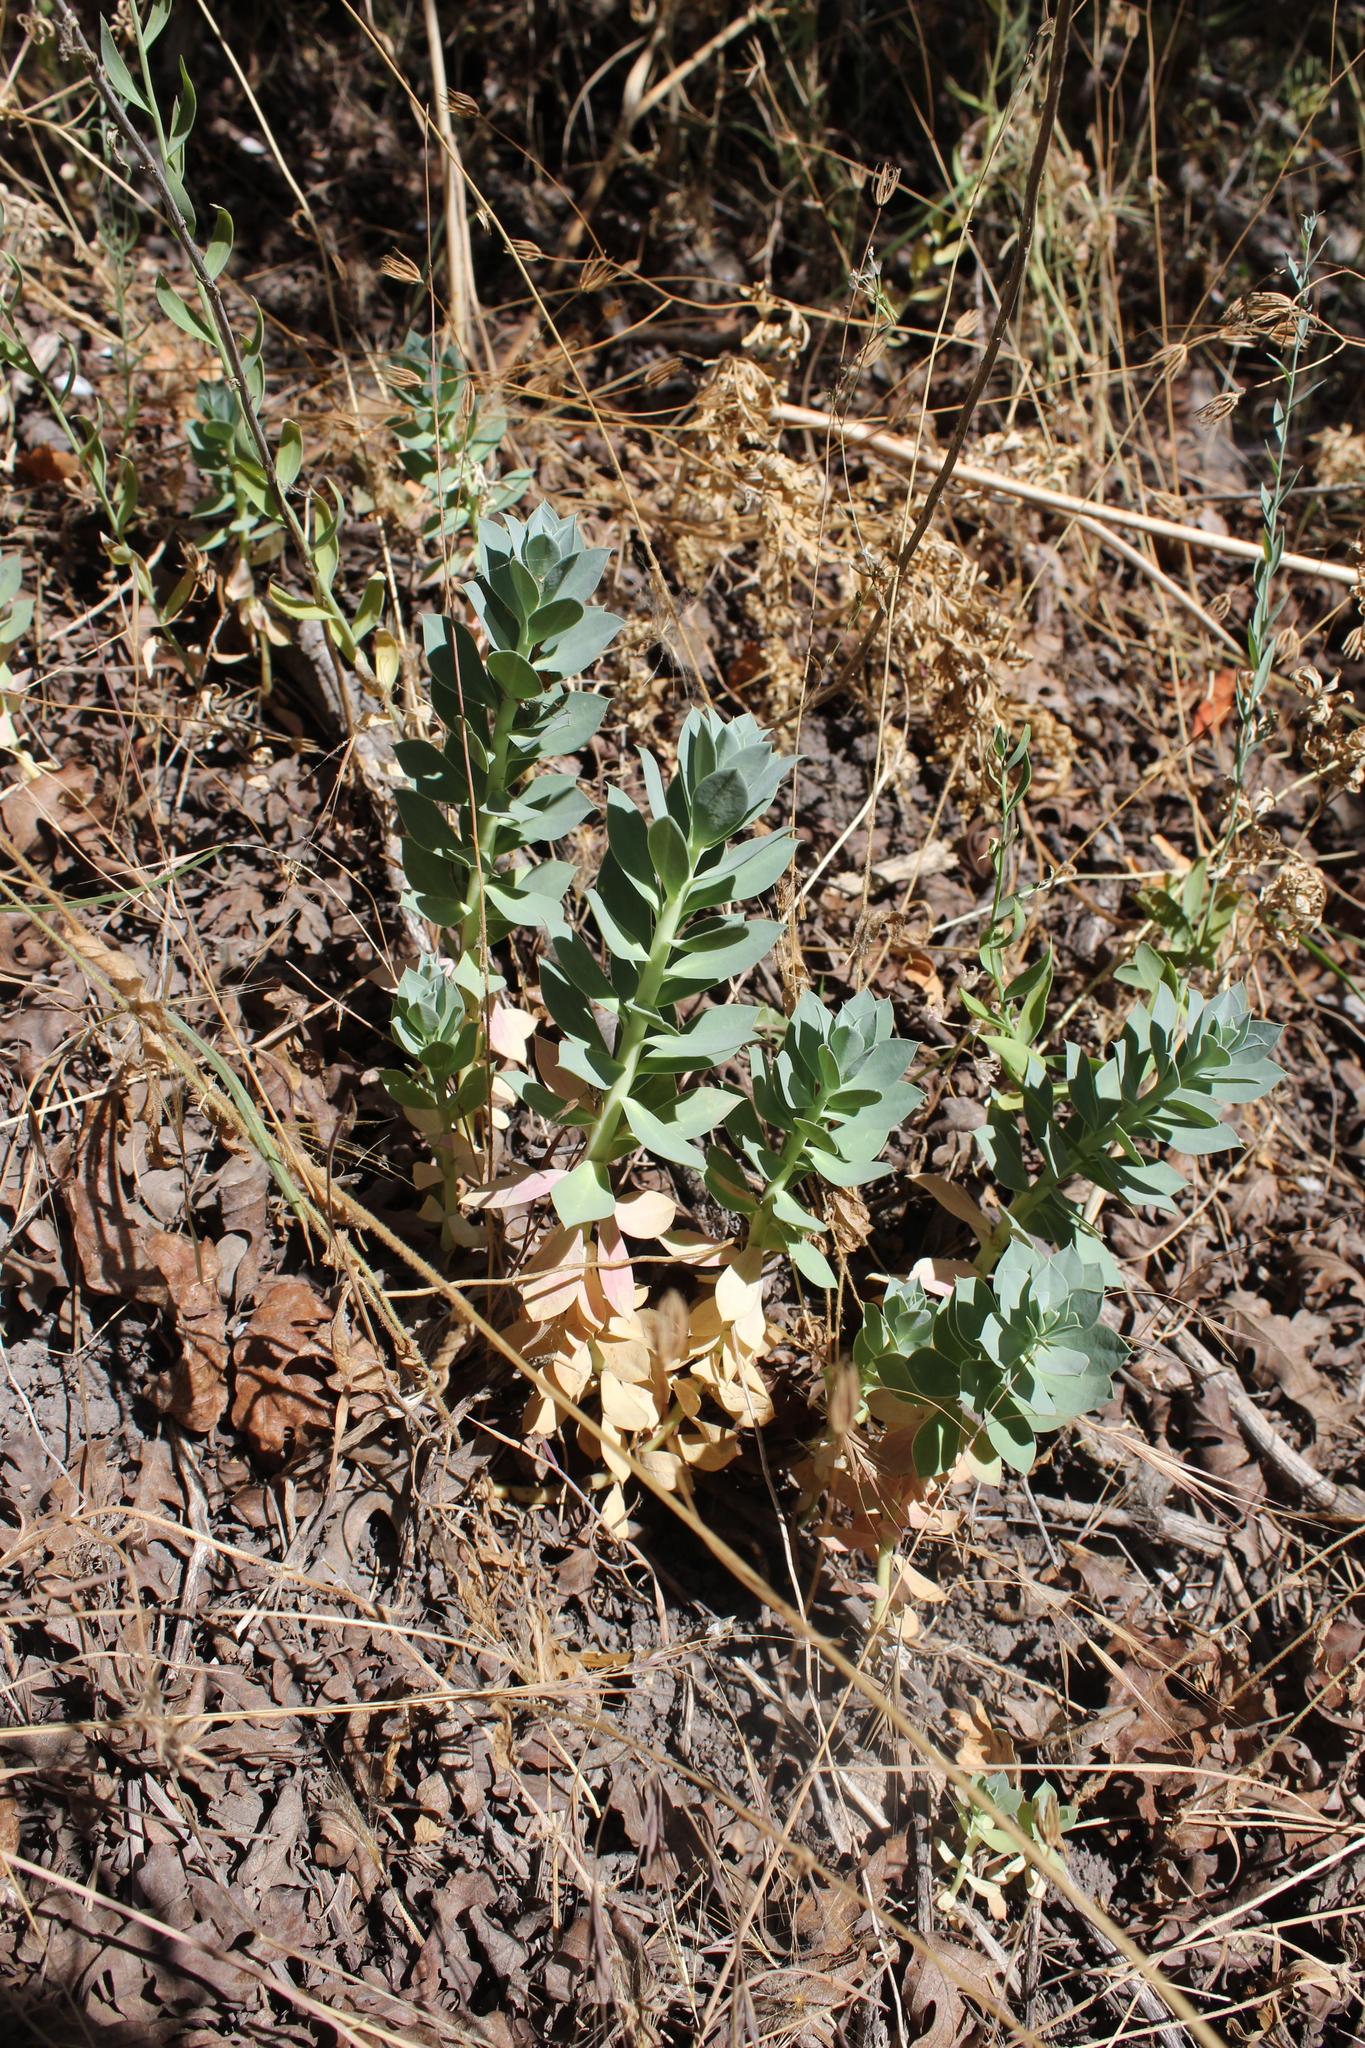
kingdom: Plantae
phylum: Tracheophyta
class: Magnoliopsida
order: Malpighiales
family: Euphorbiaceae
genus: Euphorbia
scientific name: Euphorbia myrsinites
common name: Myrtle spurge
